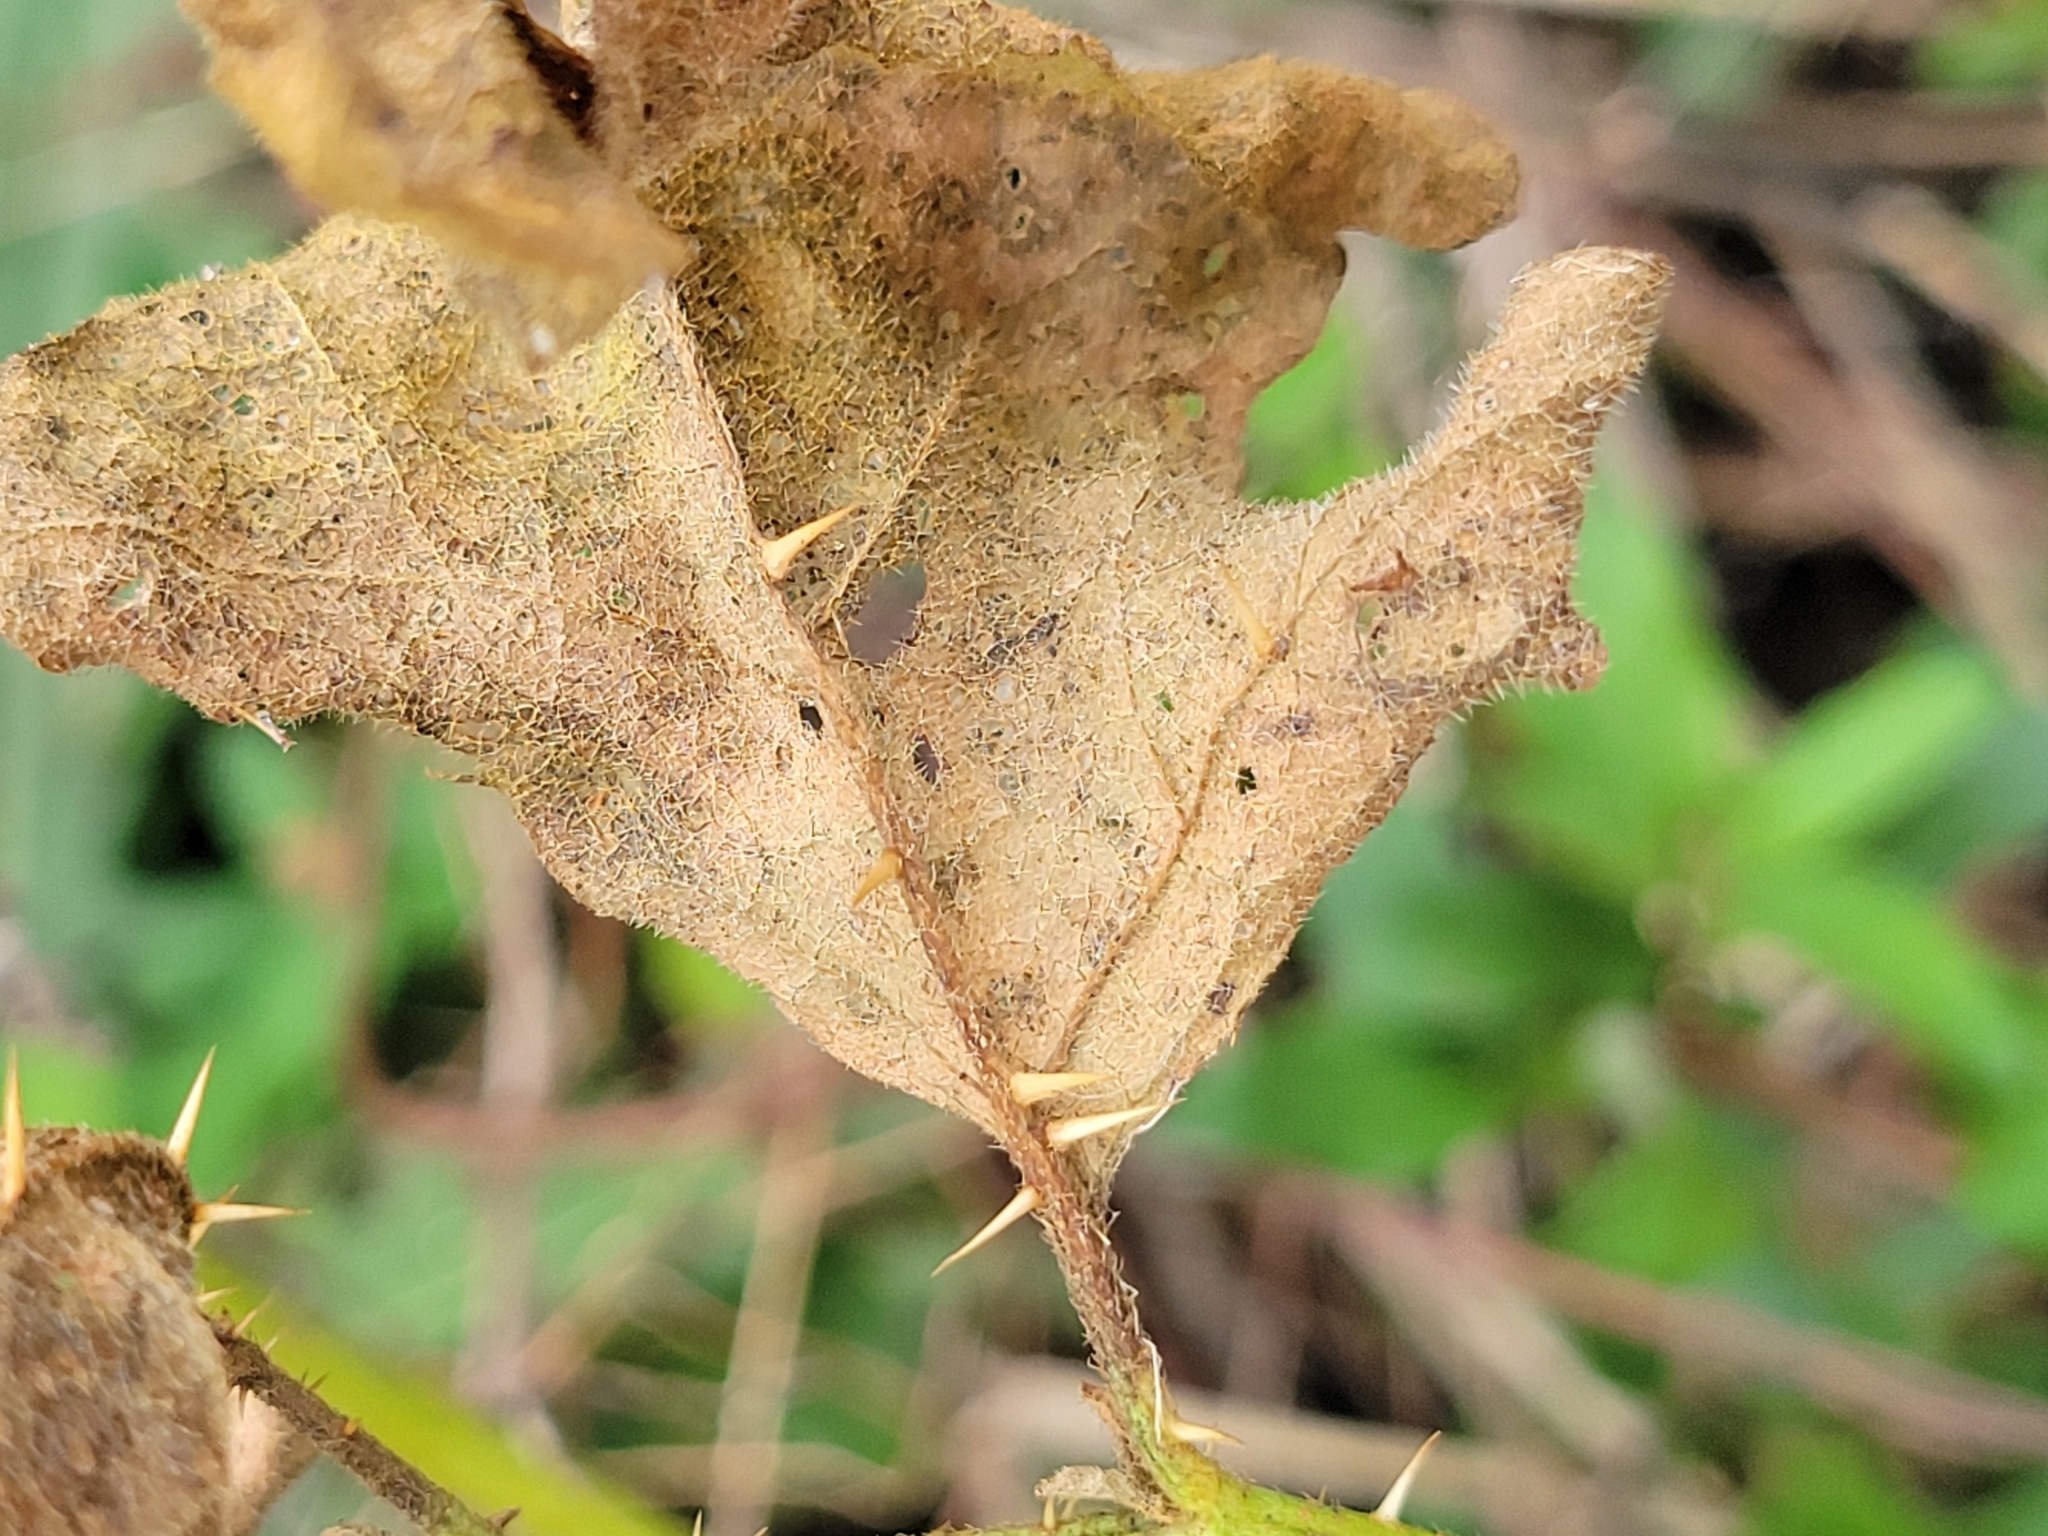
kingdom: Plantae
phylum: Tracheophyta
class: Magnoliopsida
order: Solanales
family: Solanaceae
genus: Solanum
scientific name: Solanum carolinense
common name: Horse-nettle
